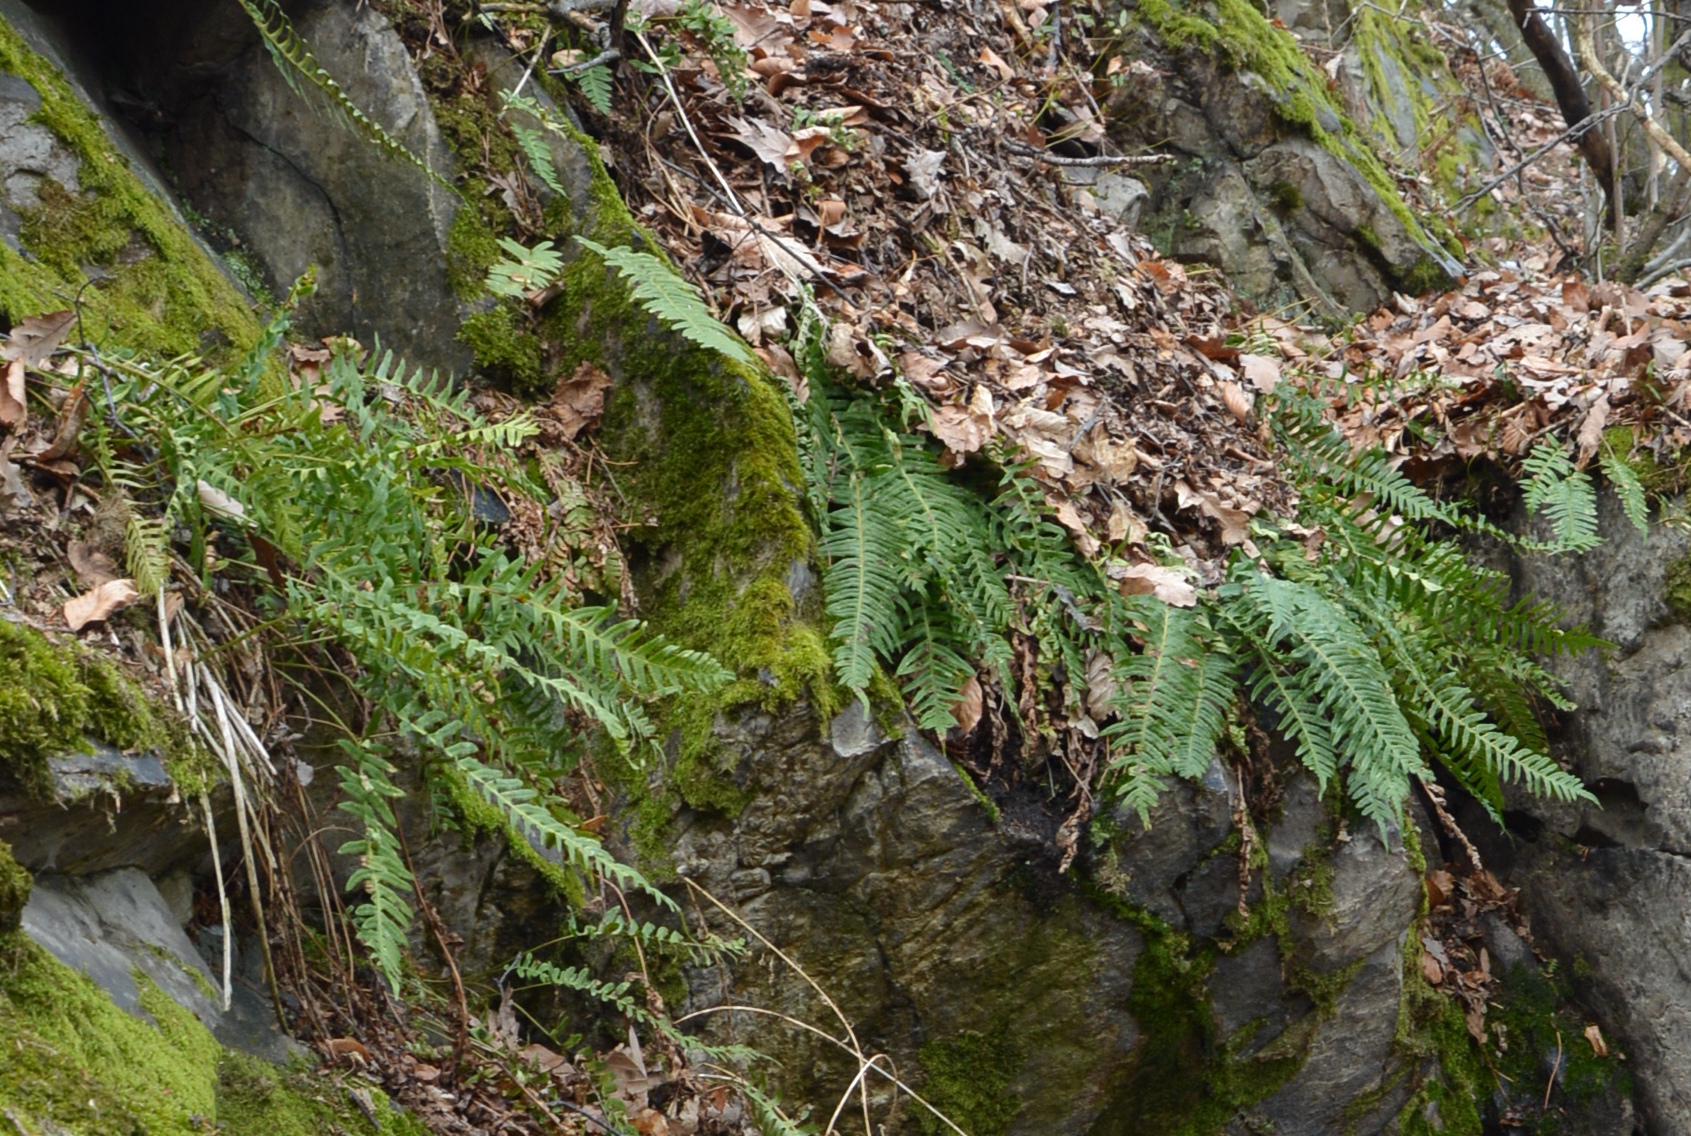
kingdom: Plantae
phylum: Tracheophyta
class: Polypodiopsida
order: Polypodiales
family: Polypodiaceae
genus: Polypodium
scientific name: Polypodium vulgare
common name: Common polypody
